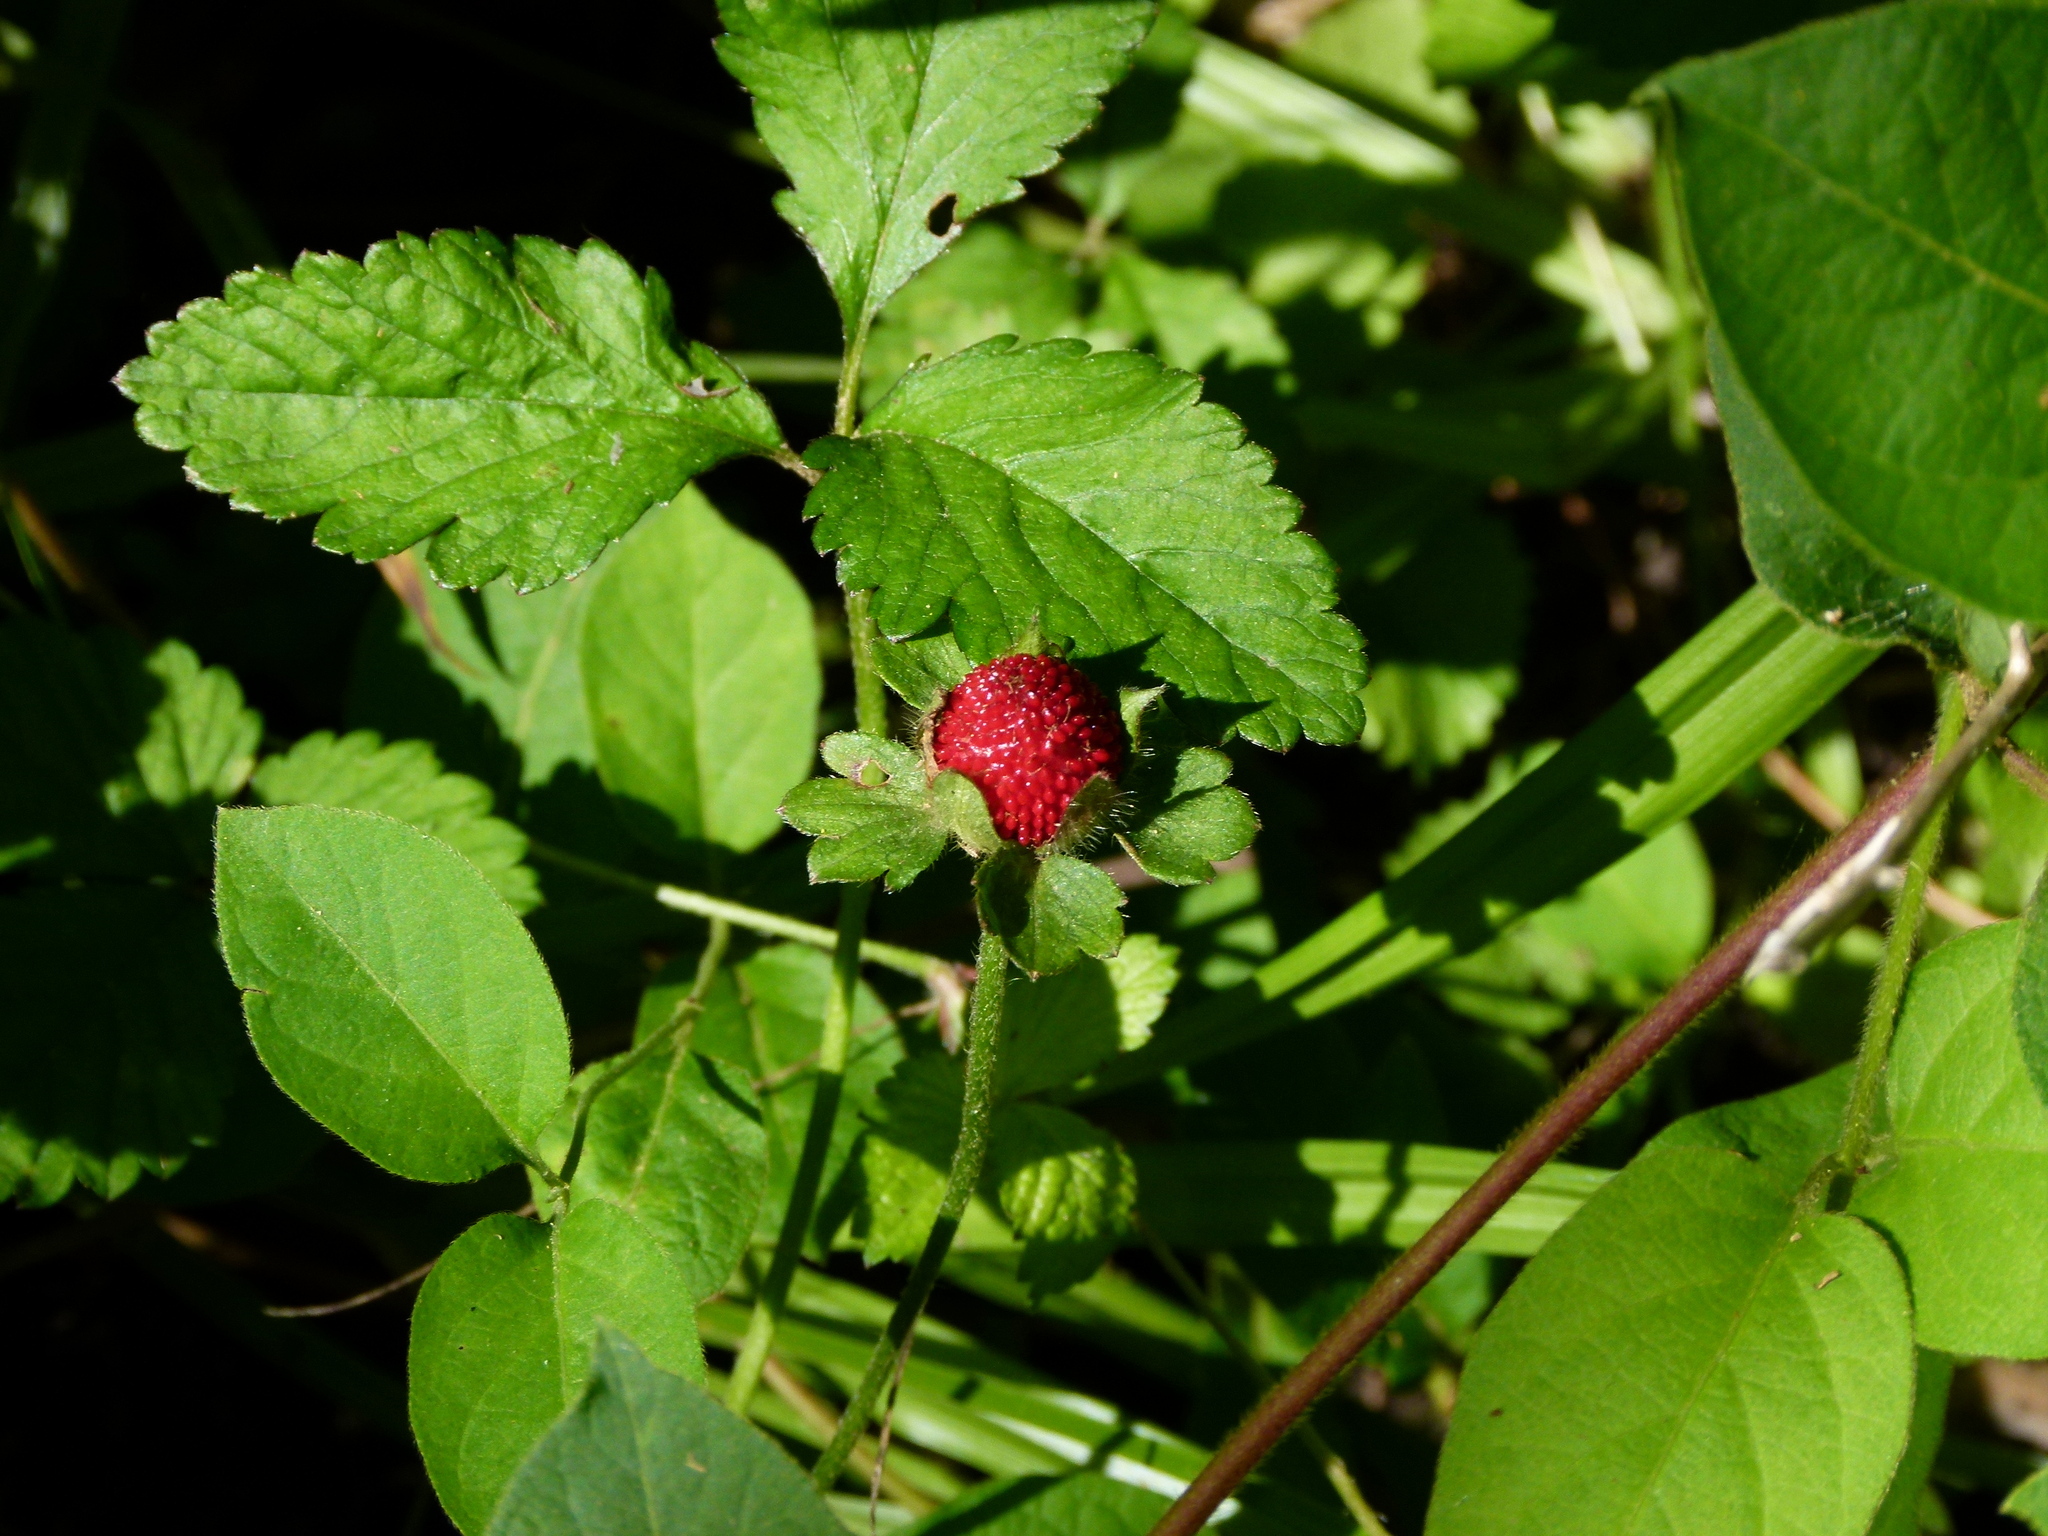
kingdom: Plantae
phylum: Tracheophyta
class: Magnoliopsida
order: Rosales
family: Rosaceae
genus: Potentilla
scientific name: Potentilla indica
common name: Yellow-flowered strawberry
